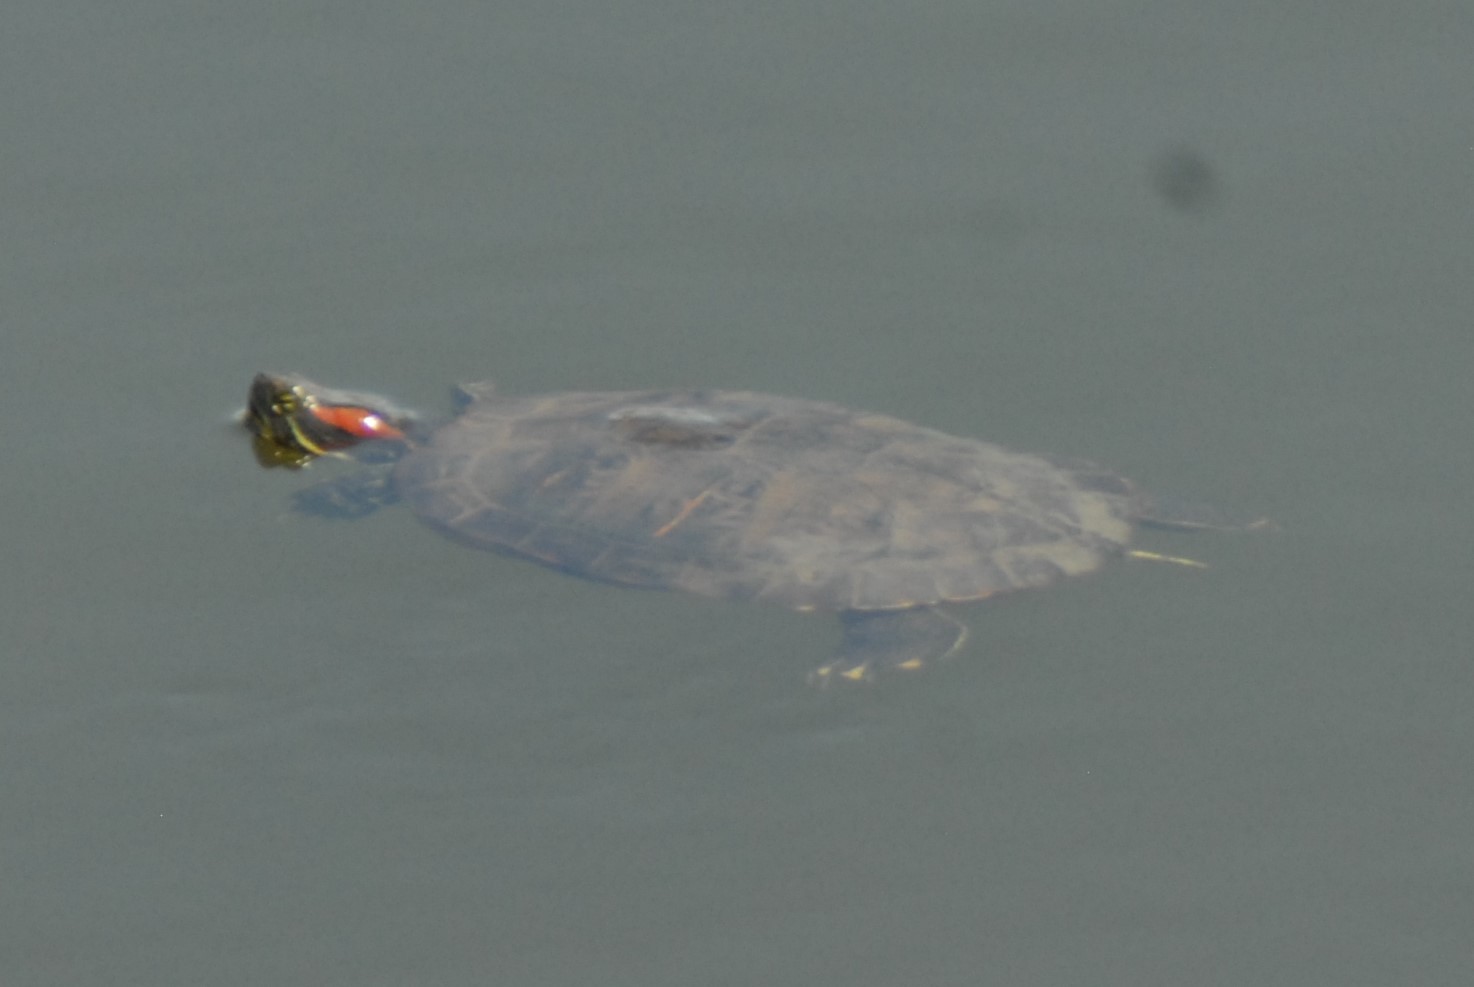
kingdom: Animalia
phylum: Chordata
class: Testudines
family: Emydidae
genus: Trachemys
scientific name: Trachemys scripta
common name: Slider
